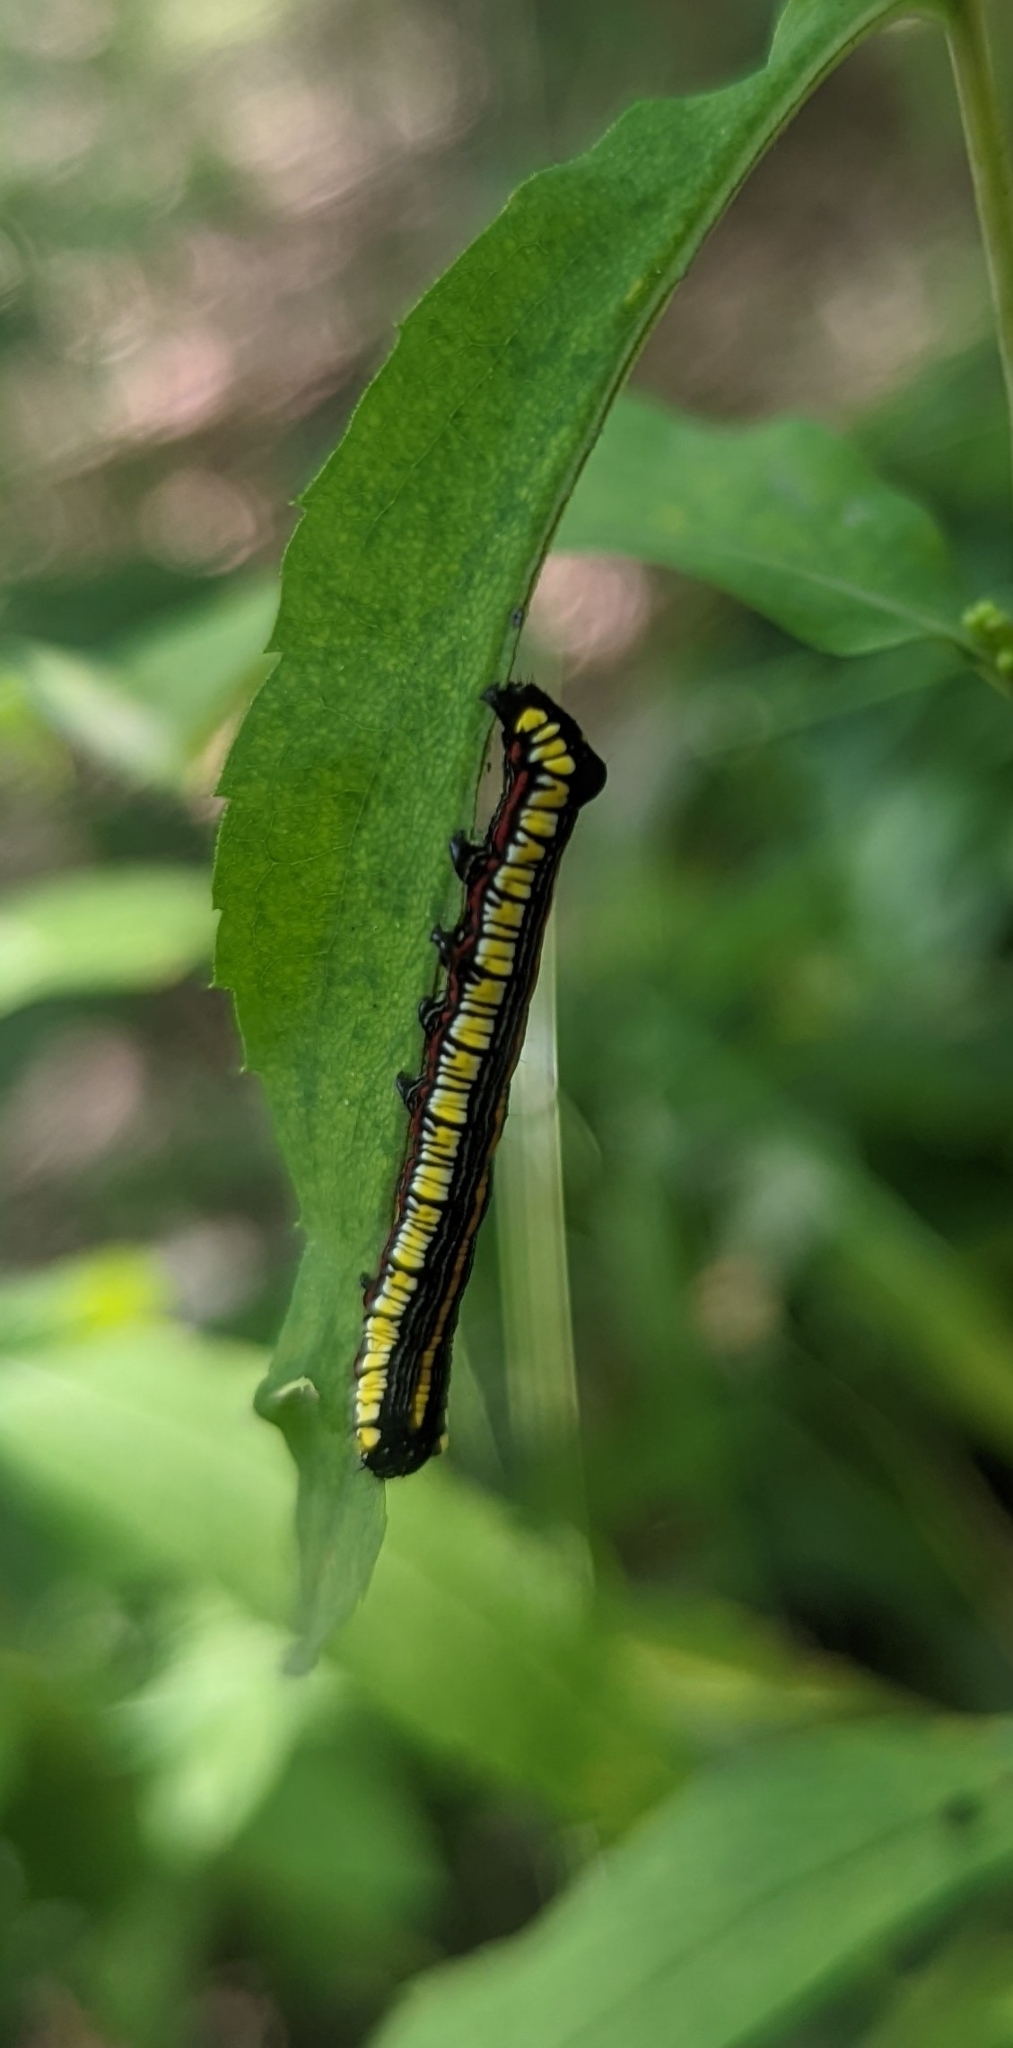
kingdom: Animalia
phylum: Arthropoda
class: Insecta
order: Lepidoptera
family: Noctuidae
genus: Cucullia
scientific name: Cucullia convexipennis
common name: Brown-hooded owlet
